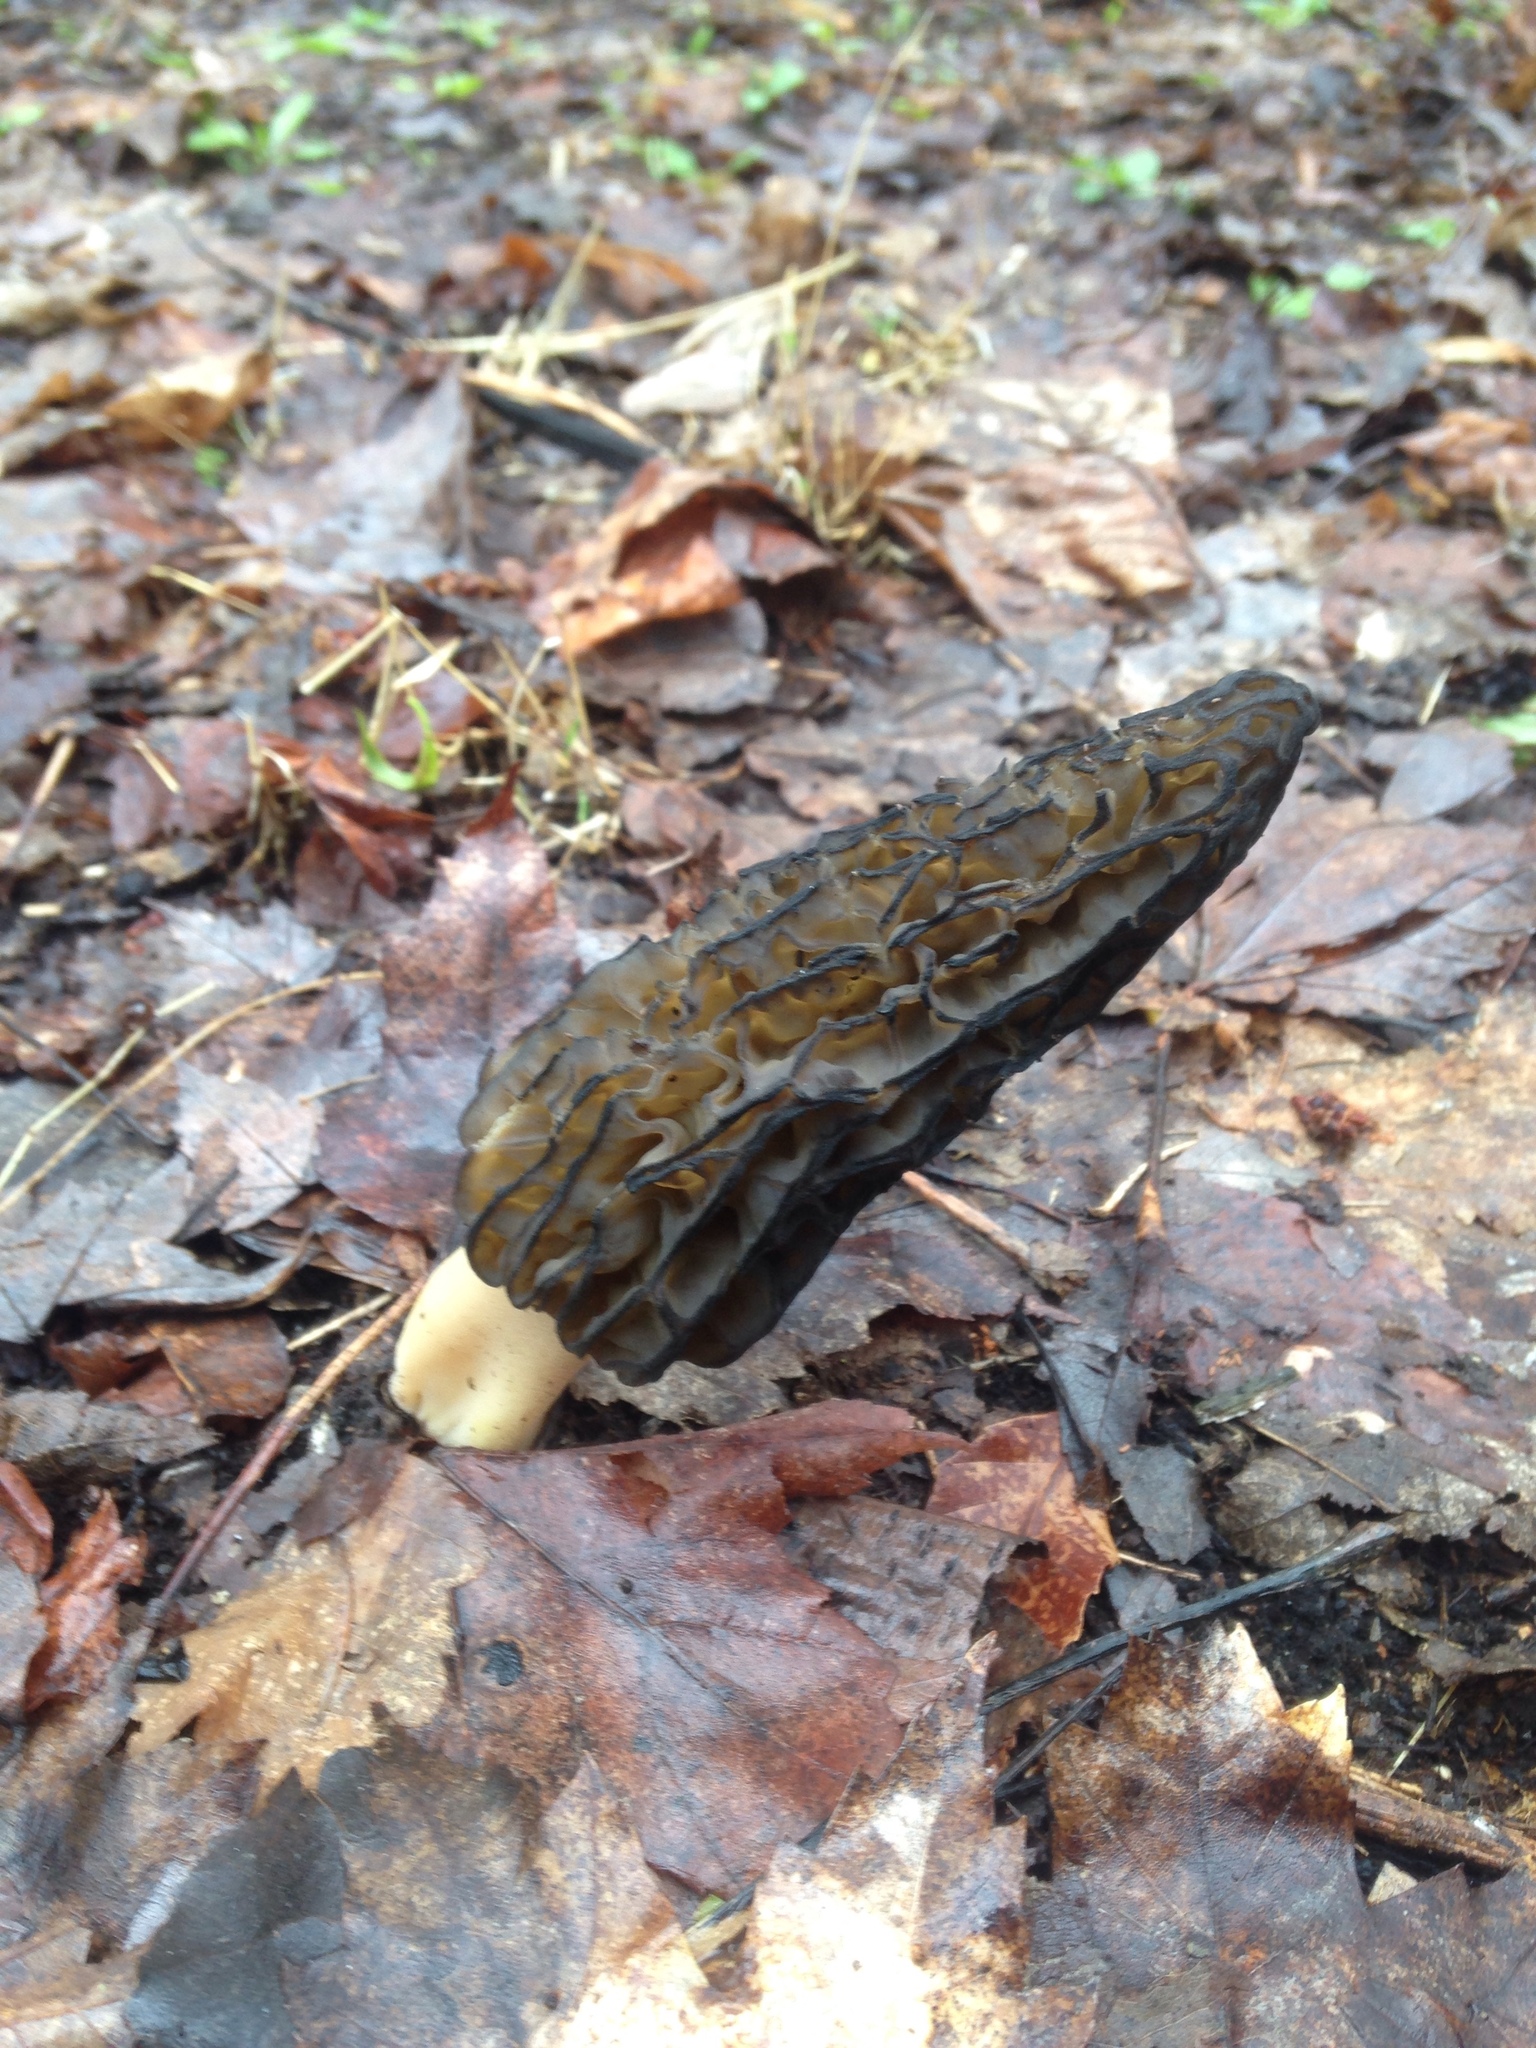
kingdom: Fungi
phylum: Ascomycota
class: Pezizomycetes
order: Pezizales
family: Morchellaceae
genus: Morchella
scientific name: Morchella angusticeps
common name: Black morel
